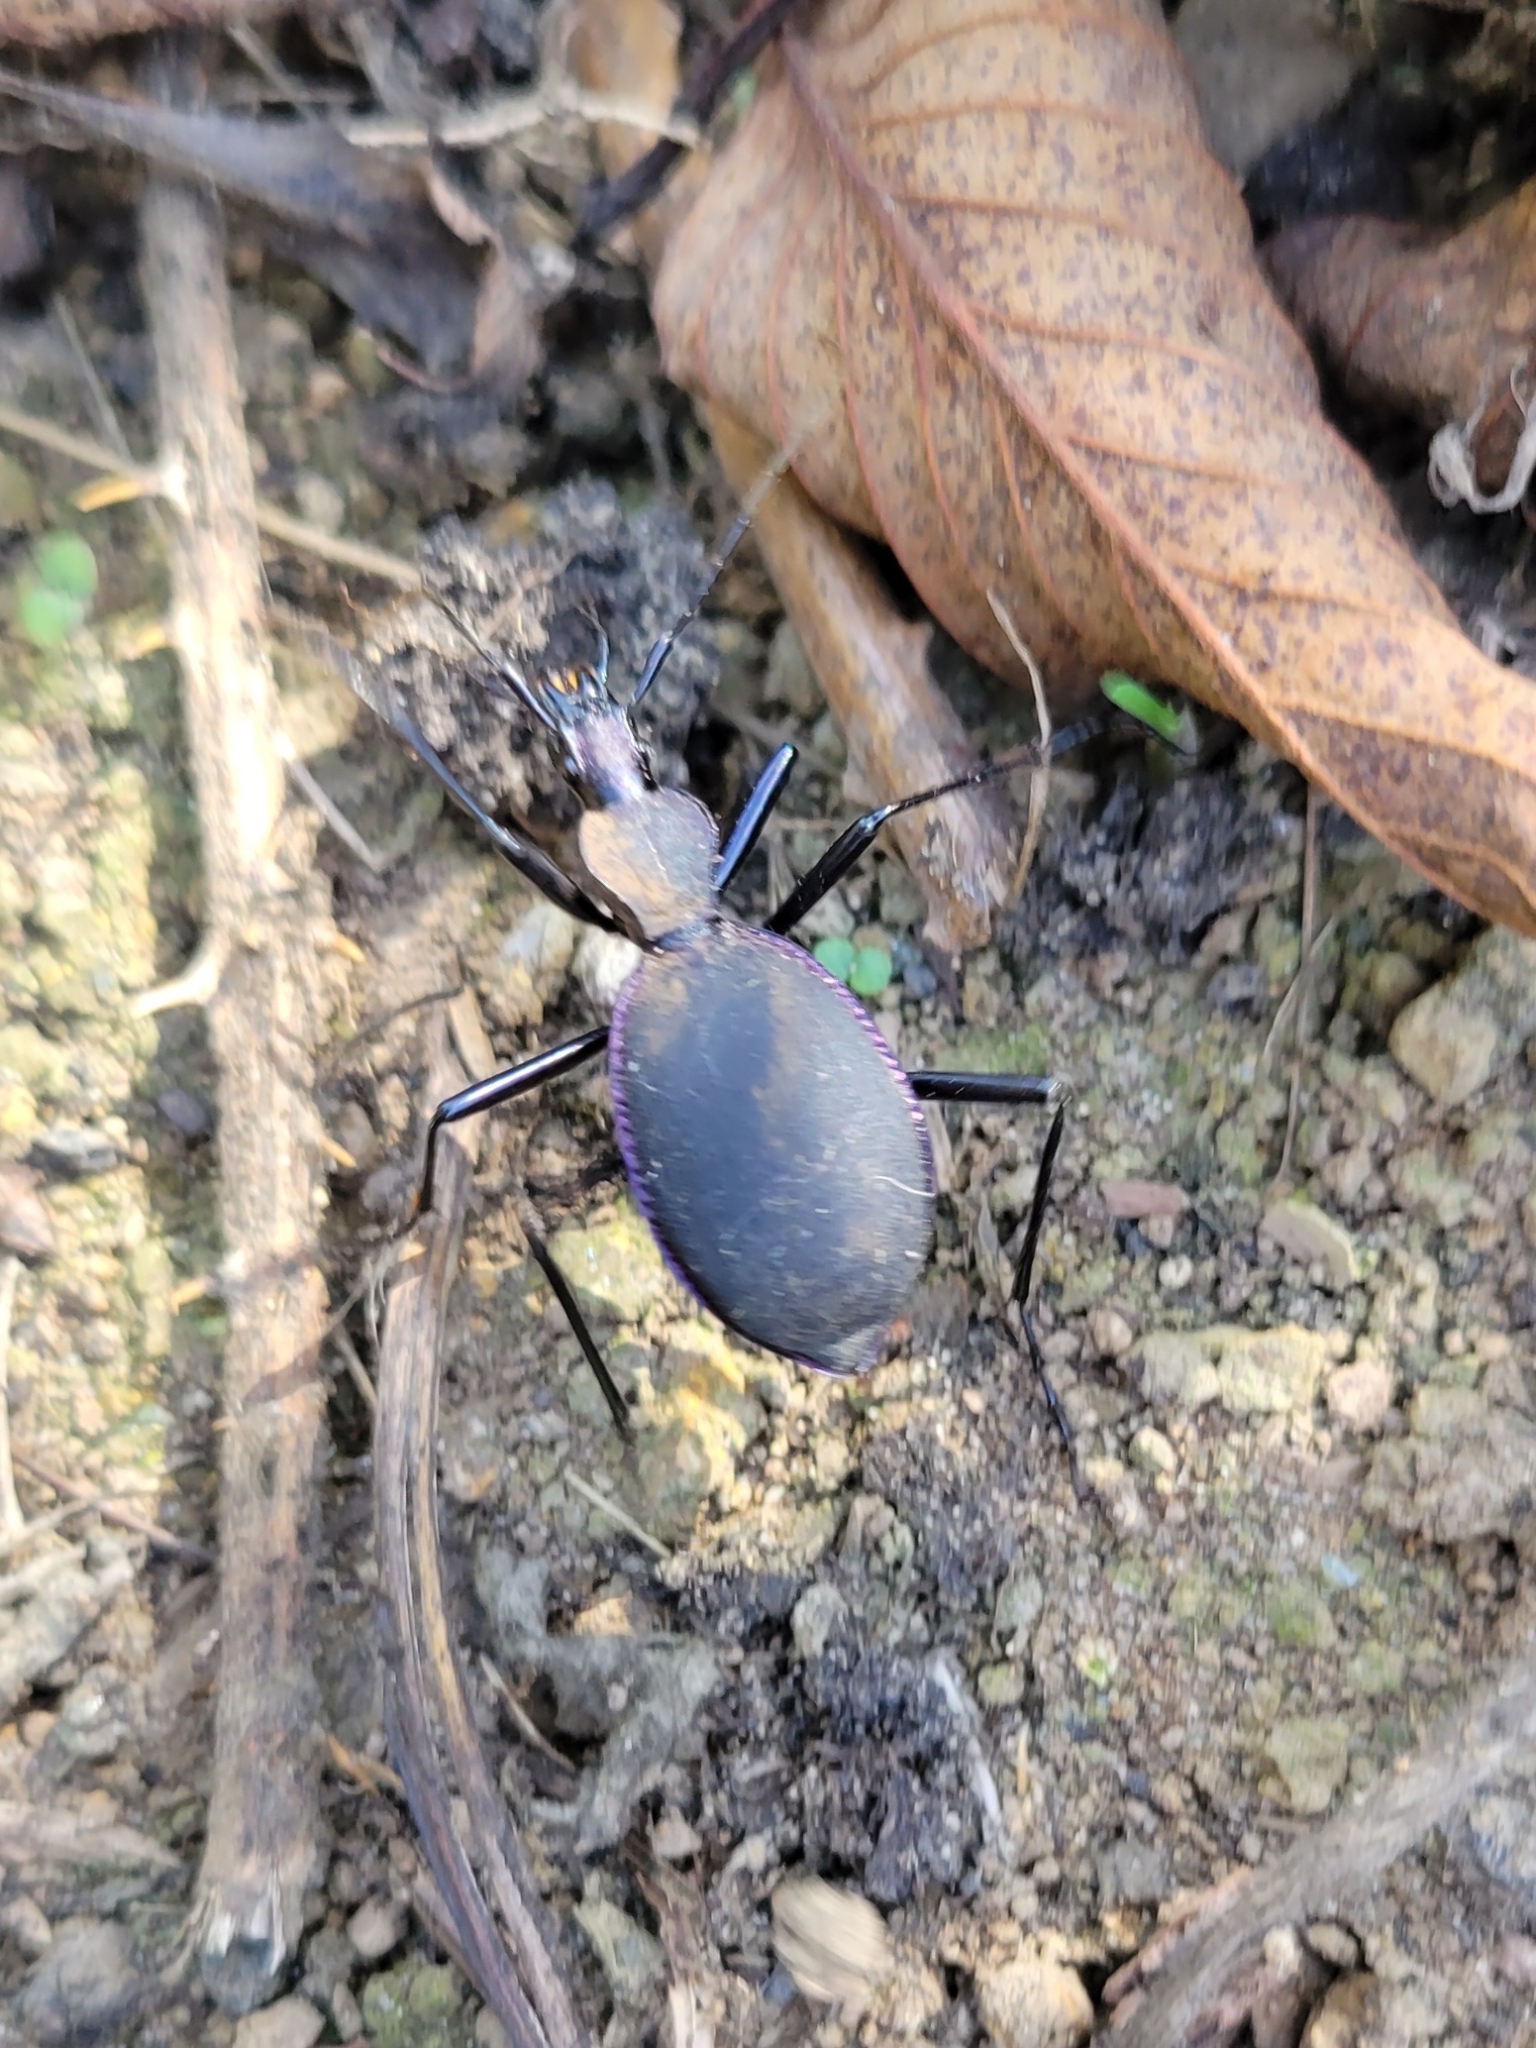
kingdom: Animalia
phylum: Arthropoda
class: Insecta
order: Coleoptera
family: Carabidae
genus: Scaphinotus
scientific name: Scaphinotus velutinus
